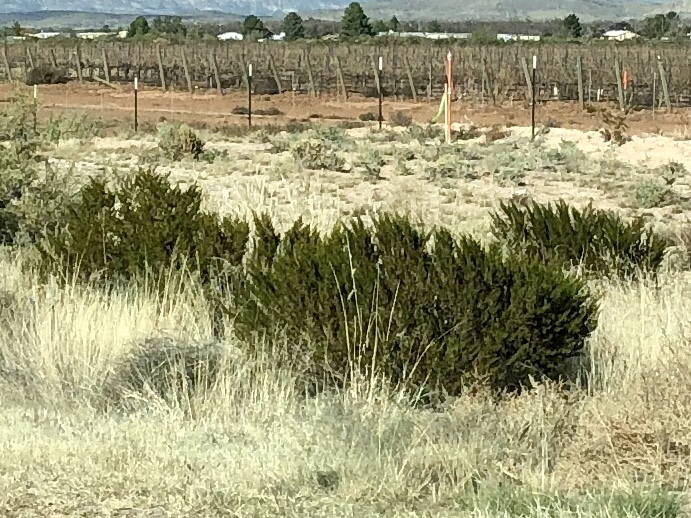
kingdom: Plantae
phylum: Tracheophyta
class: Magnoliopsida
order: Zygophyllales
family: Zygophyllaceae
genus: Larrea
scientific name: Larrea tridentata
